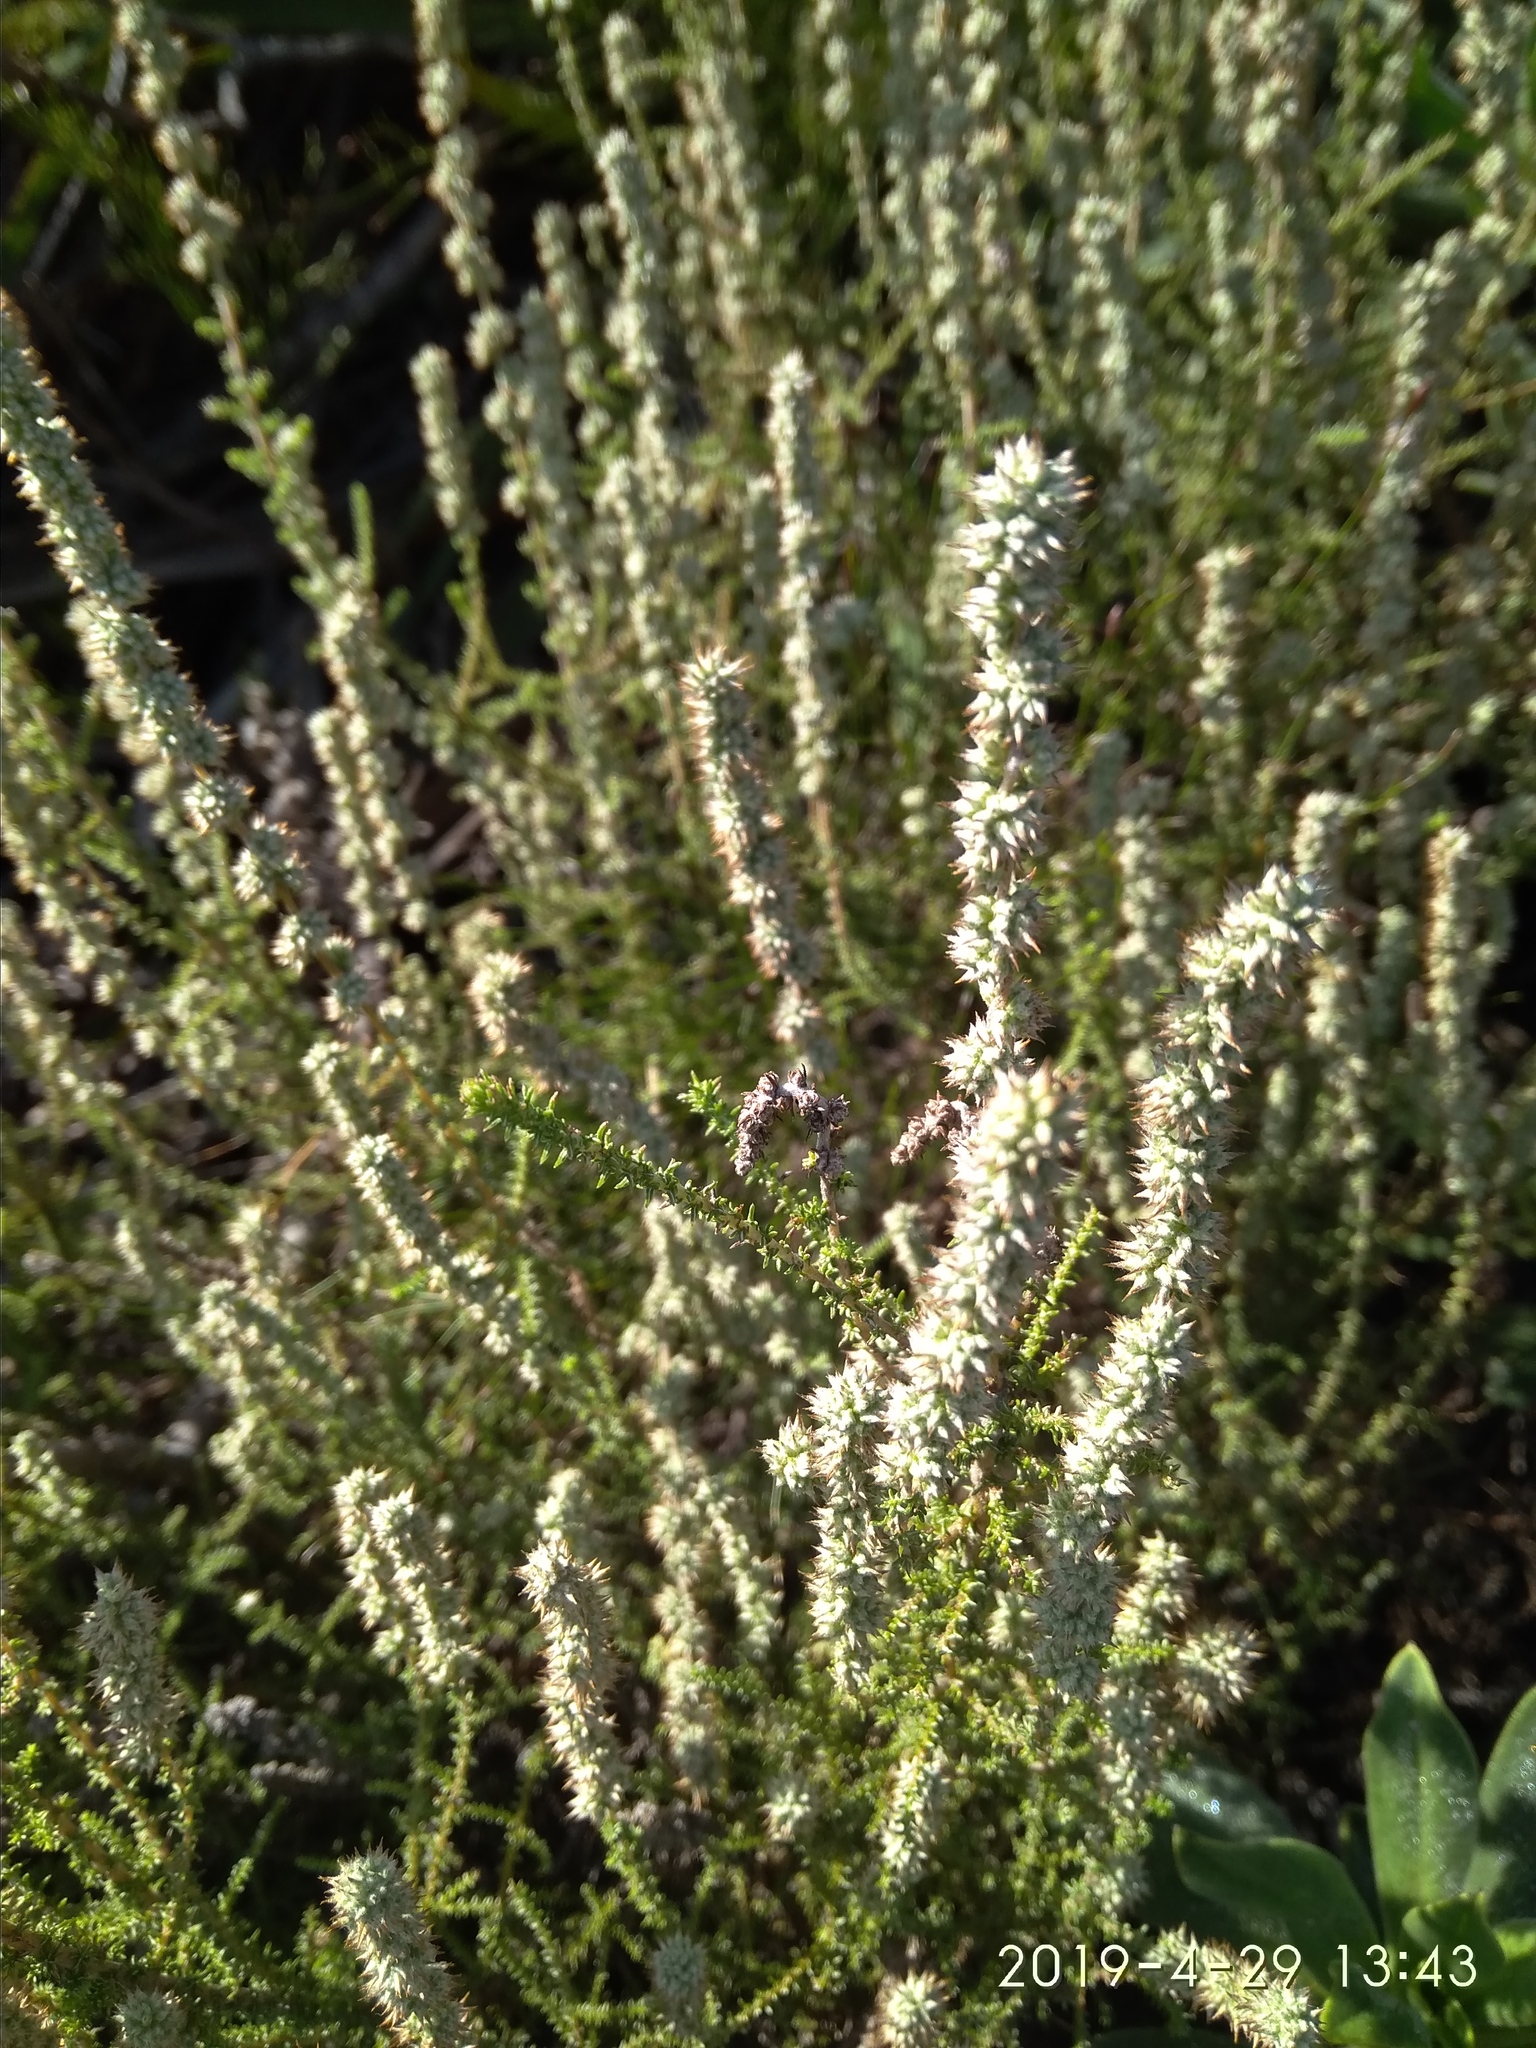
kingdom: Plantae
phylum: Tracheophyta
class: Magnoliopsida
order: Asterales
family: Asteraceae
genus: Seriphium
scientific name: Seriphium plumosum
